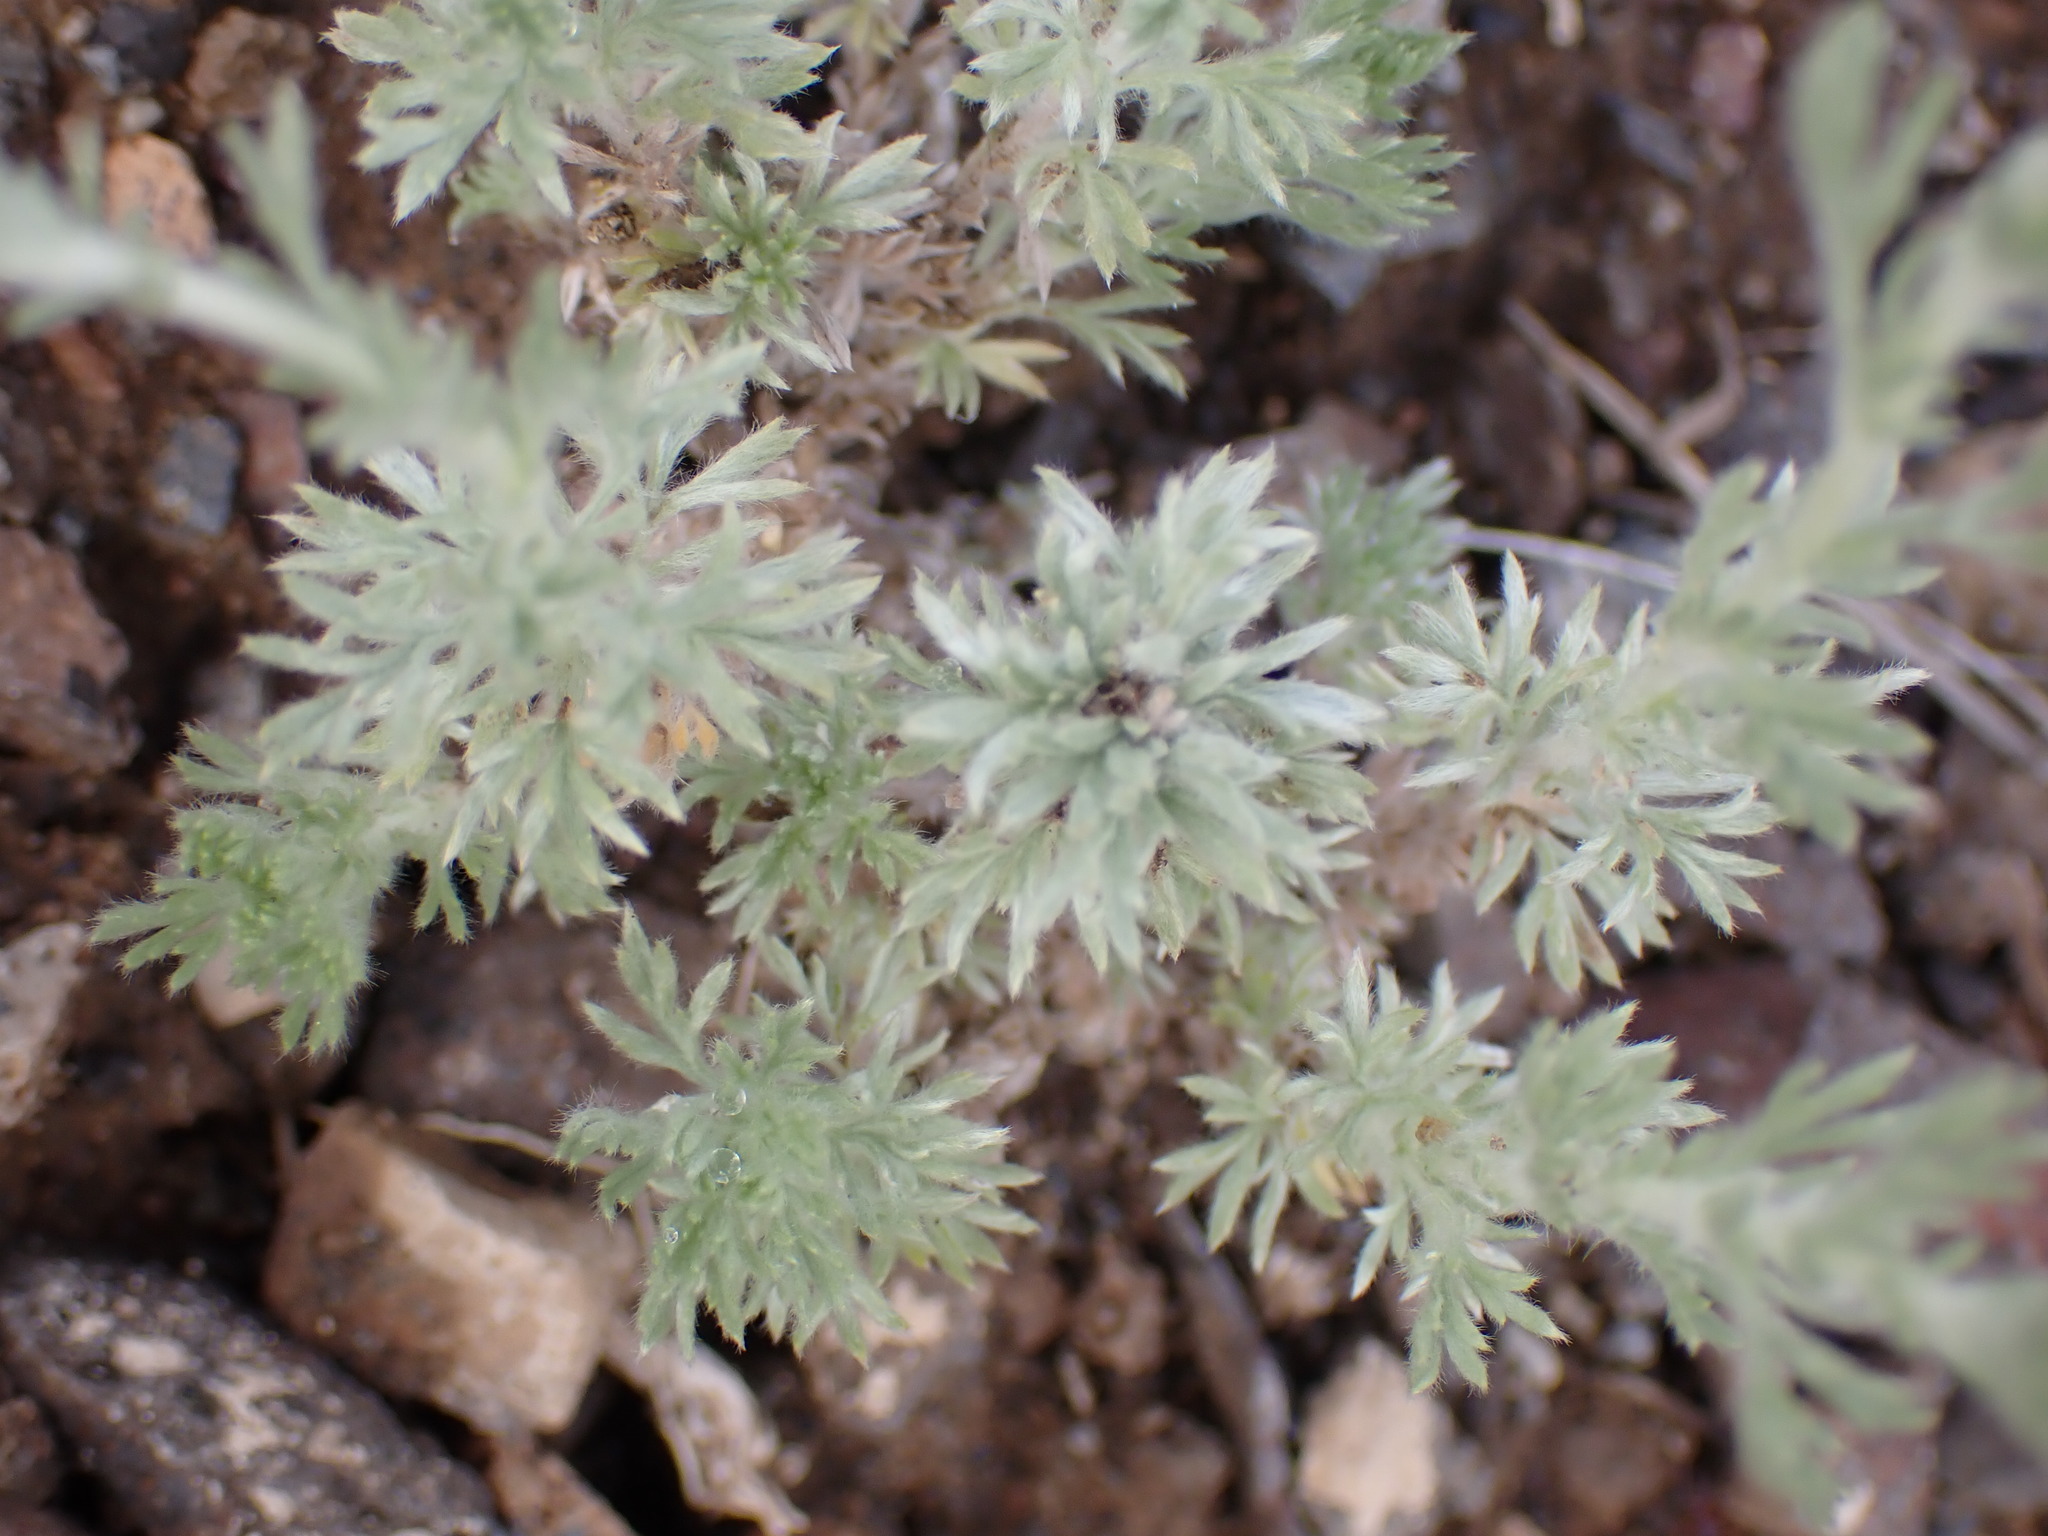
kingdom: Plantae
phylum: Tracheophyta
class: Magnoliopsida
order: Asterales
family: Asteraceae
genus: Artemisia
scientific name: Artemisia frigida
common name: Prairie sagewort
